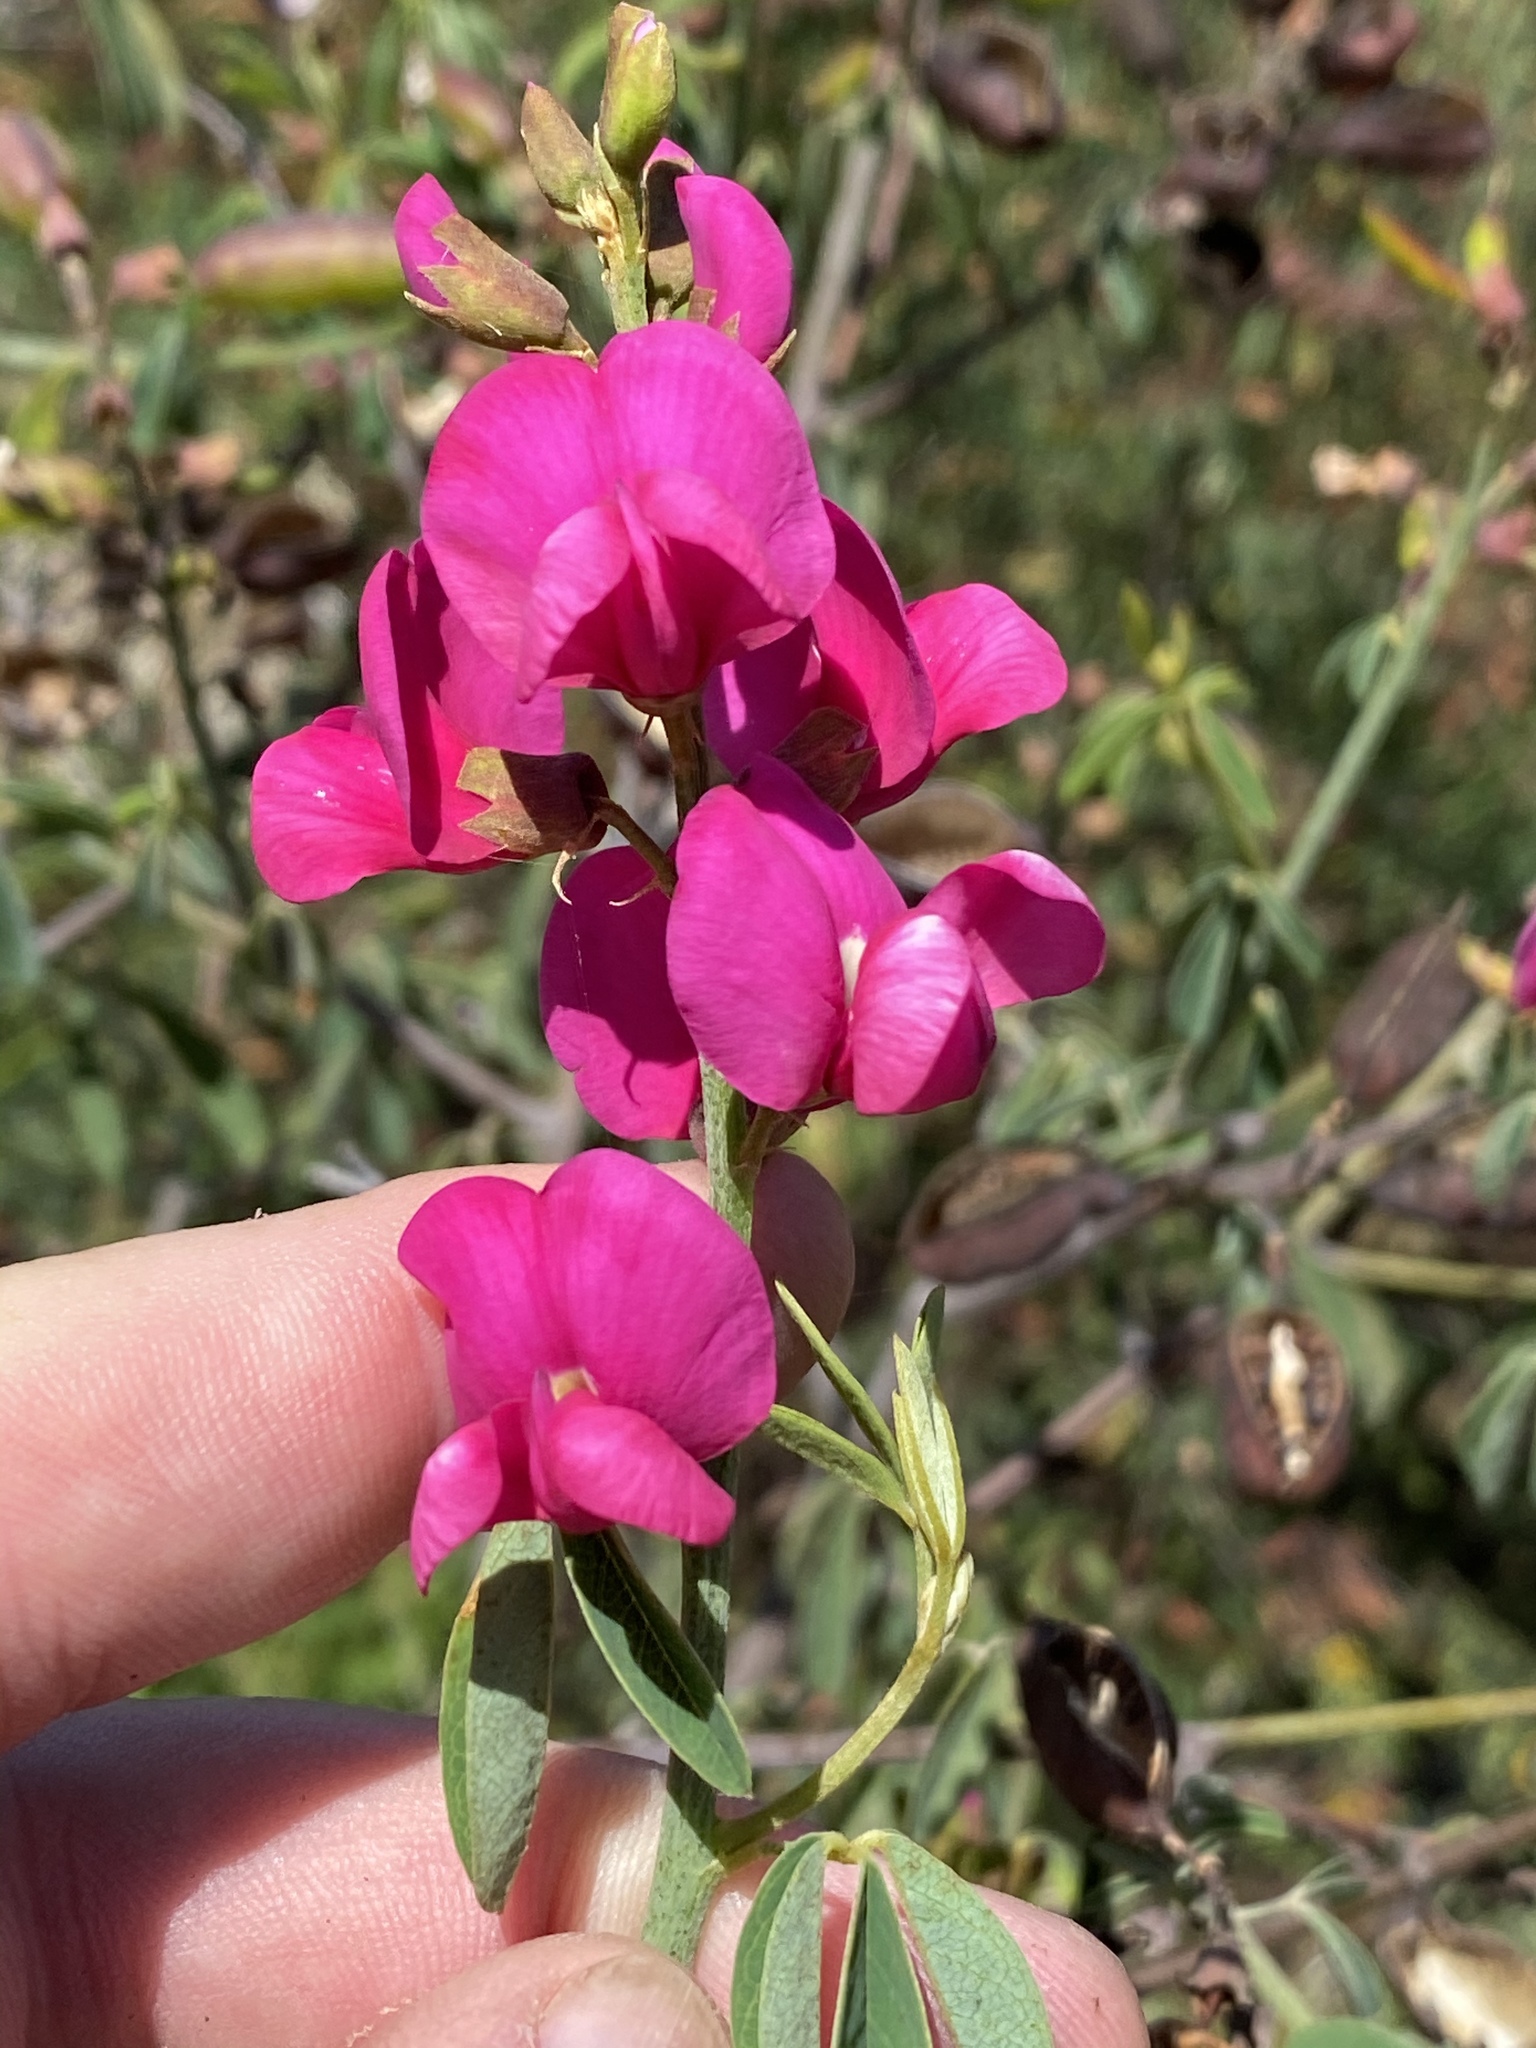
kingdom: Plantae
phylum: Tracheophyta
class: Magnoliopsida
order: Fabales
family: Fabaceae
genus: Hypocalyptus
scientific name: Hypocalyptus coluteoides
